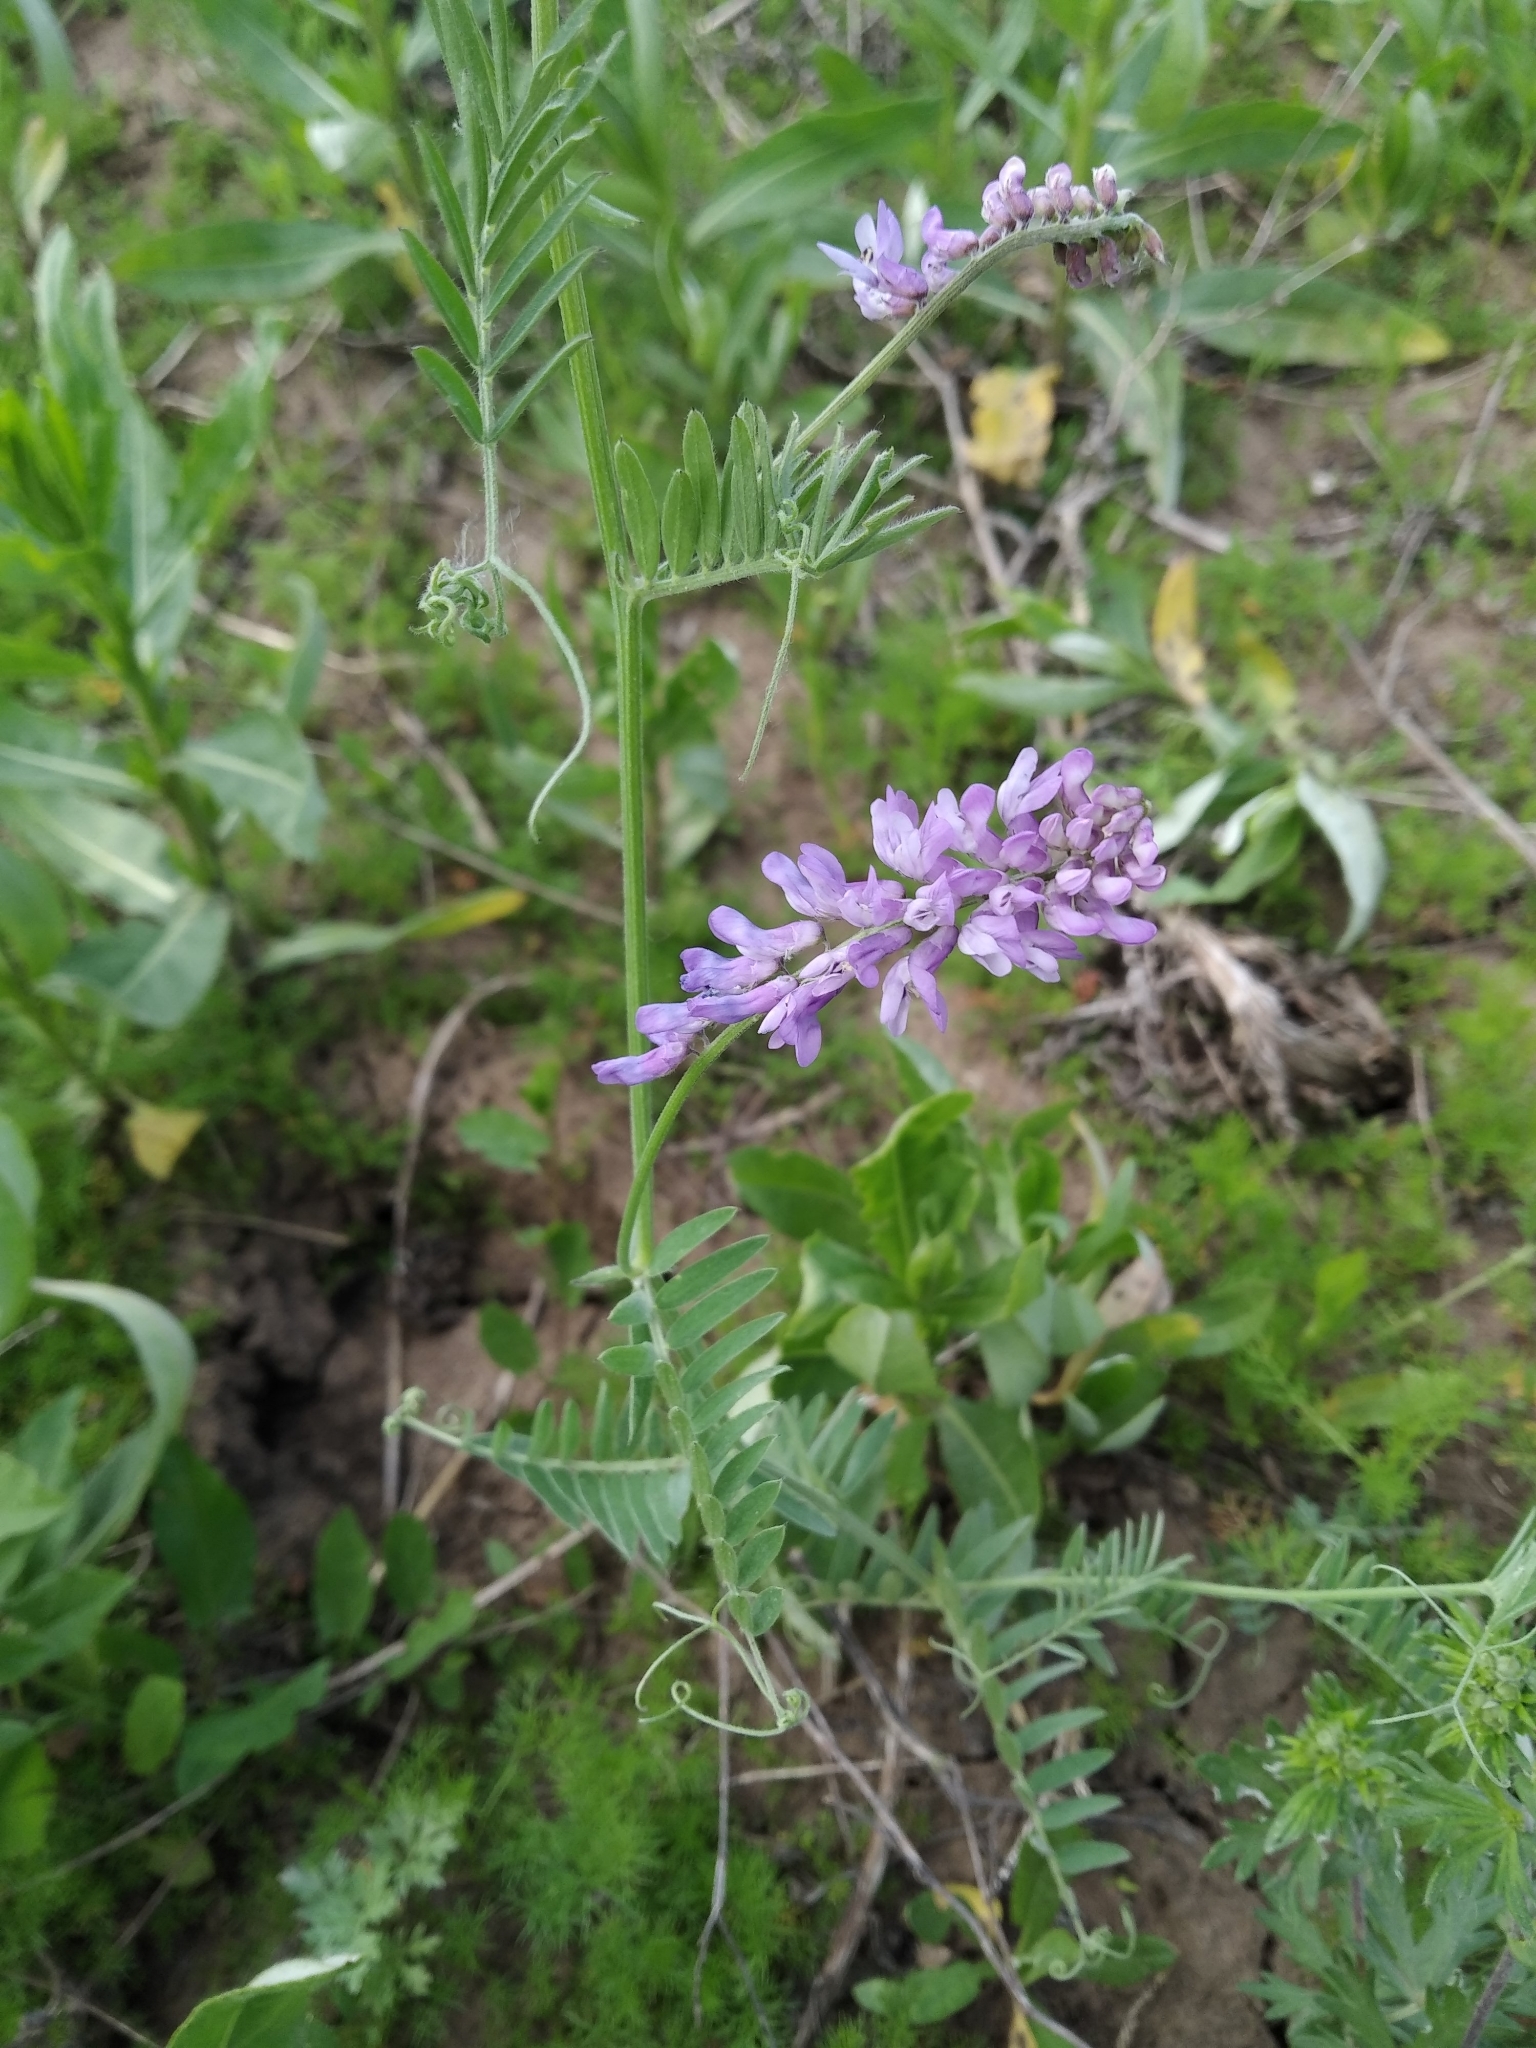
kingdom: Plantae
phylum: Tracheophyta
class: Magnoliopsida
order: Fabales
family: Fabaceae
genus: Vicia
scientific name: Vicia cracca
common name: Bird vetch
